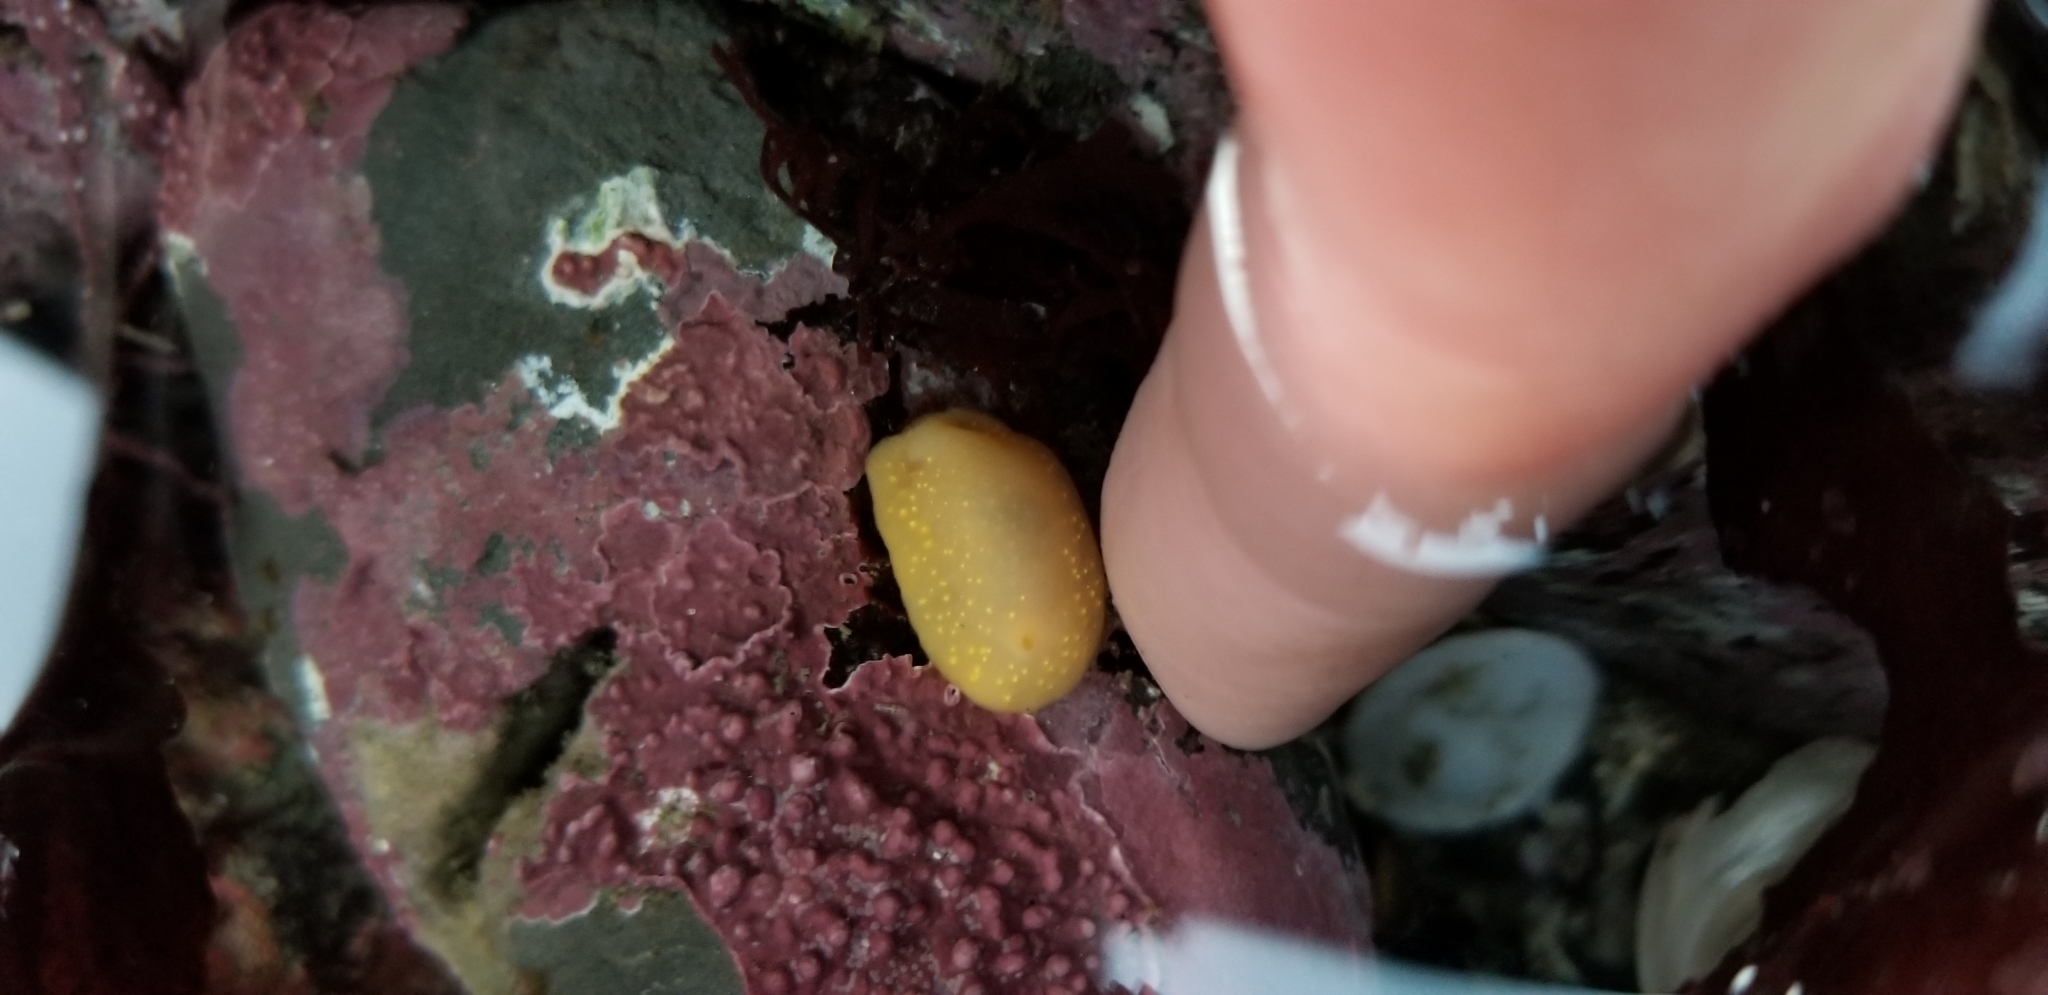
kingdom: Animalia
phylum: Mollusca
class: Gastropoda
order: Nudibranchia
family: Cadlinidae
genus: Cadlina
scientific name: Cadlina modesta
